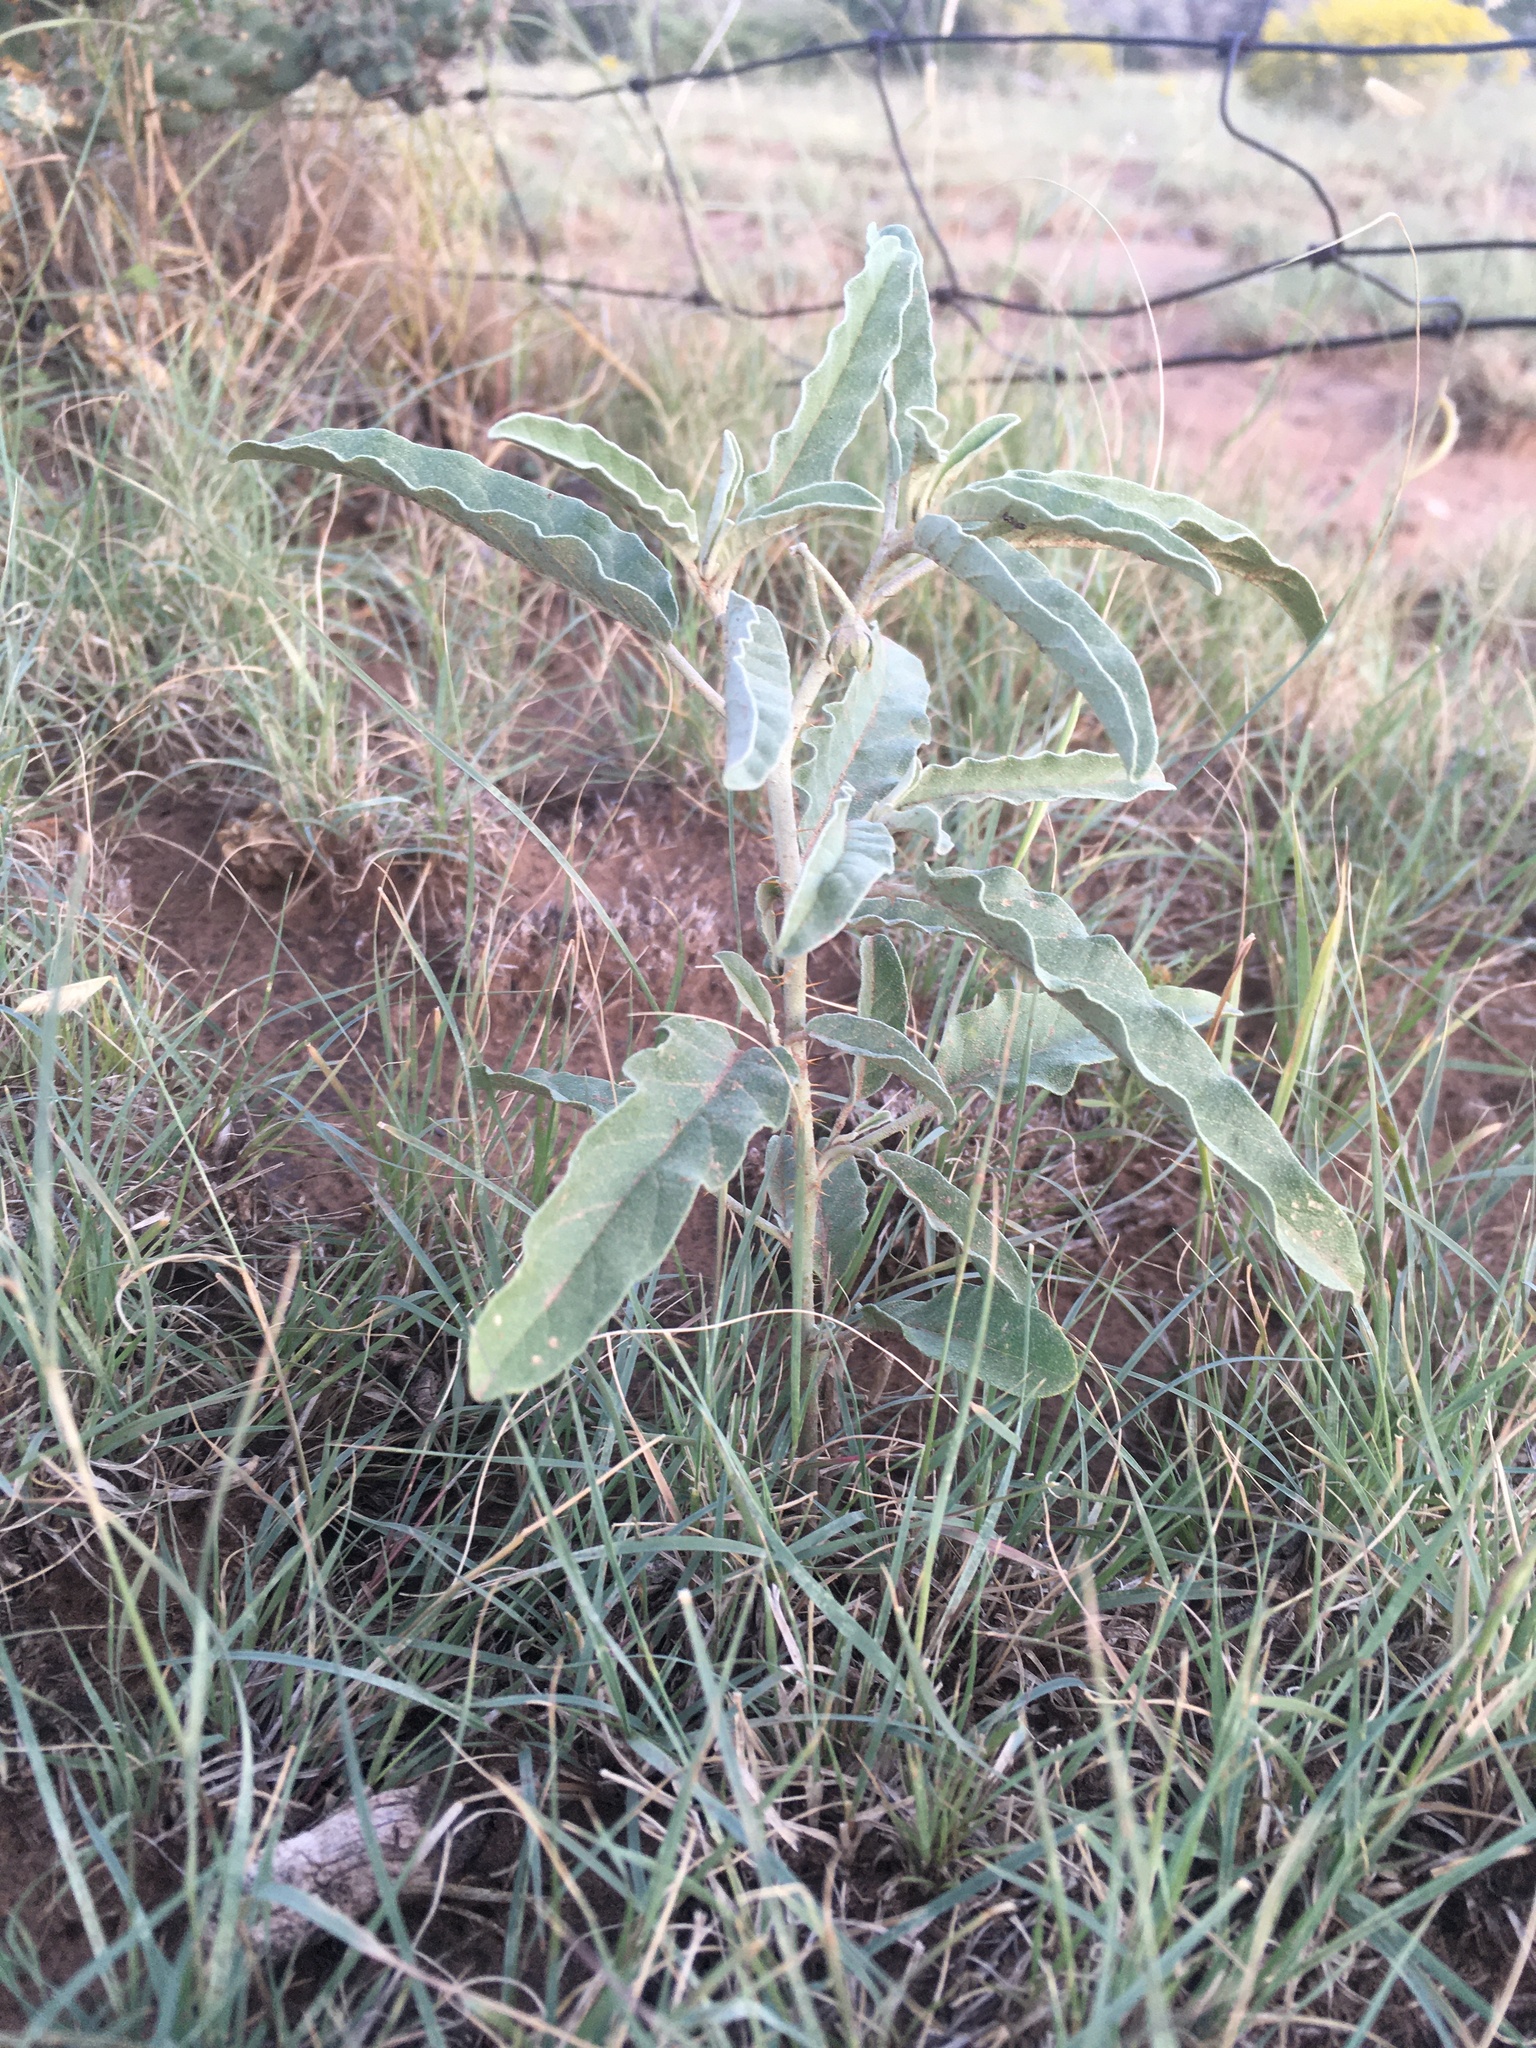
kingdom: Plantae
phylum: Tracheophyta
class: Magnoliopsida
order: Solanales
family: Solanaceae
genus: Solanum
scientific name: Solanum elaeagnifolium
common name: Silverleaf nightshade
